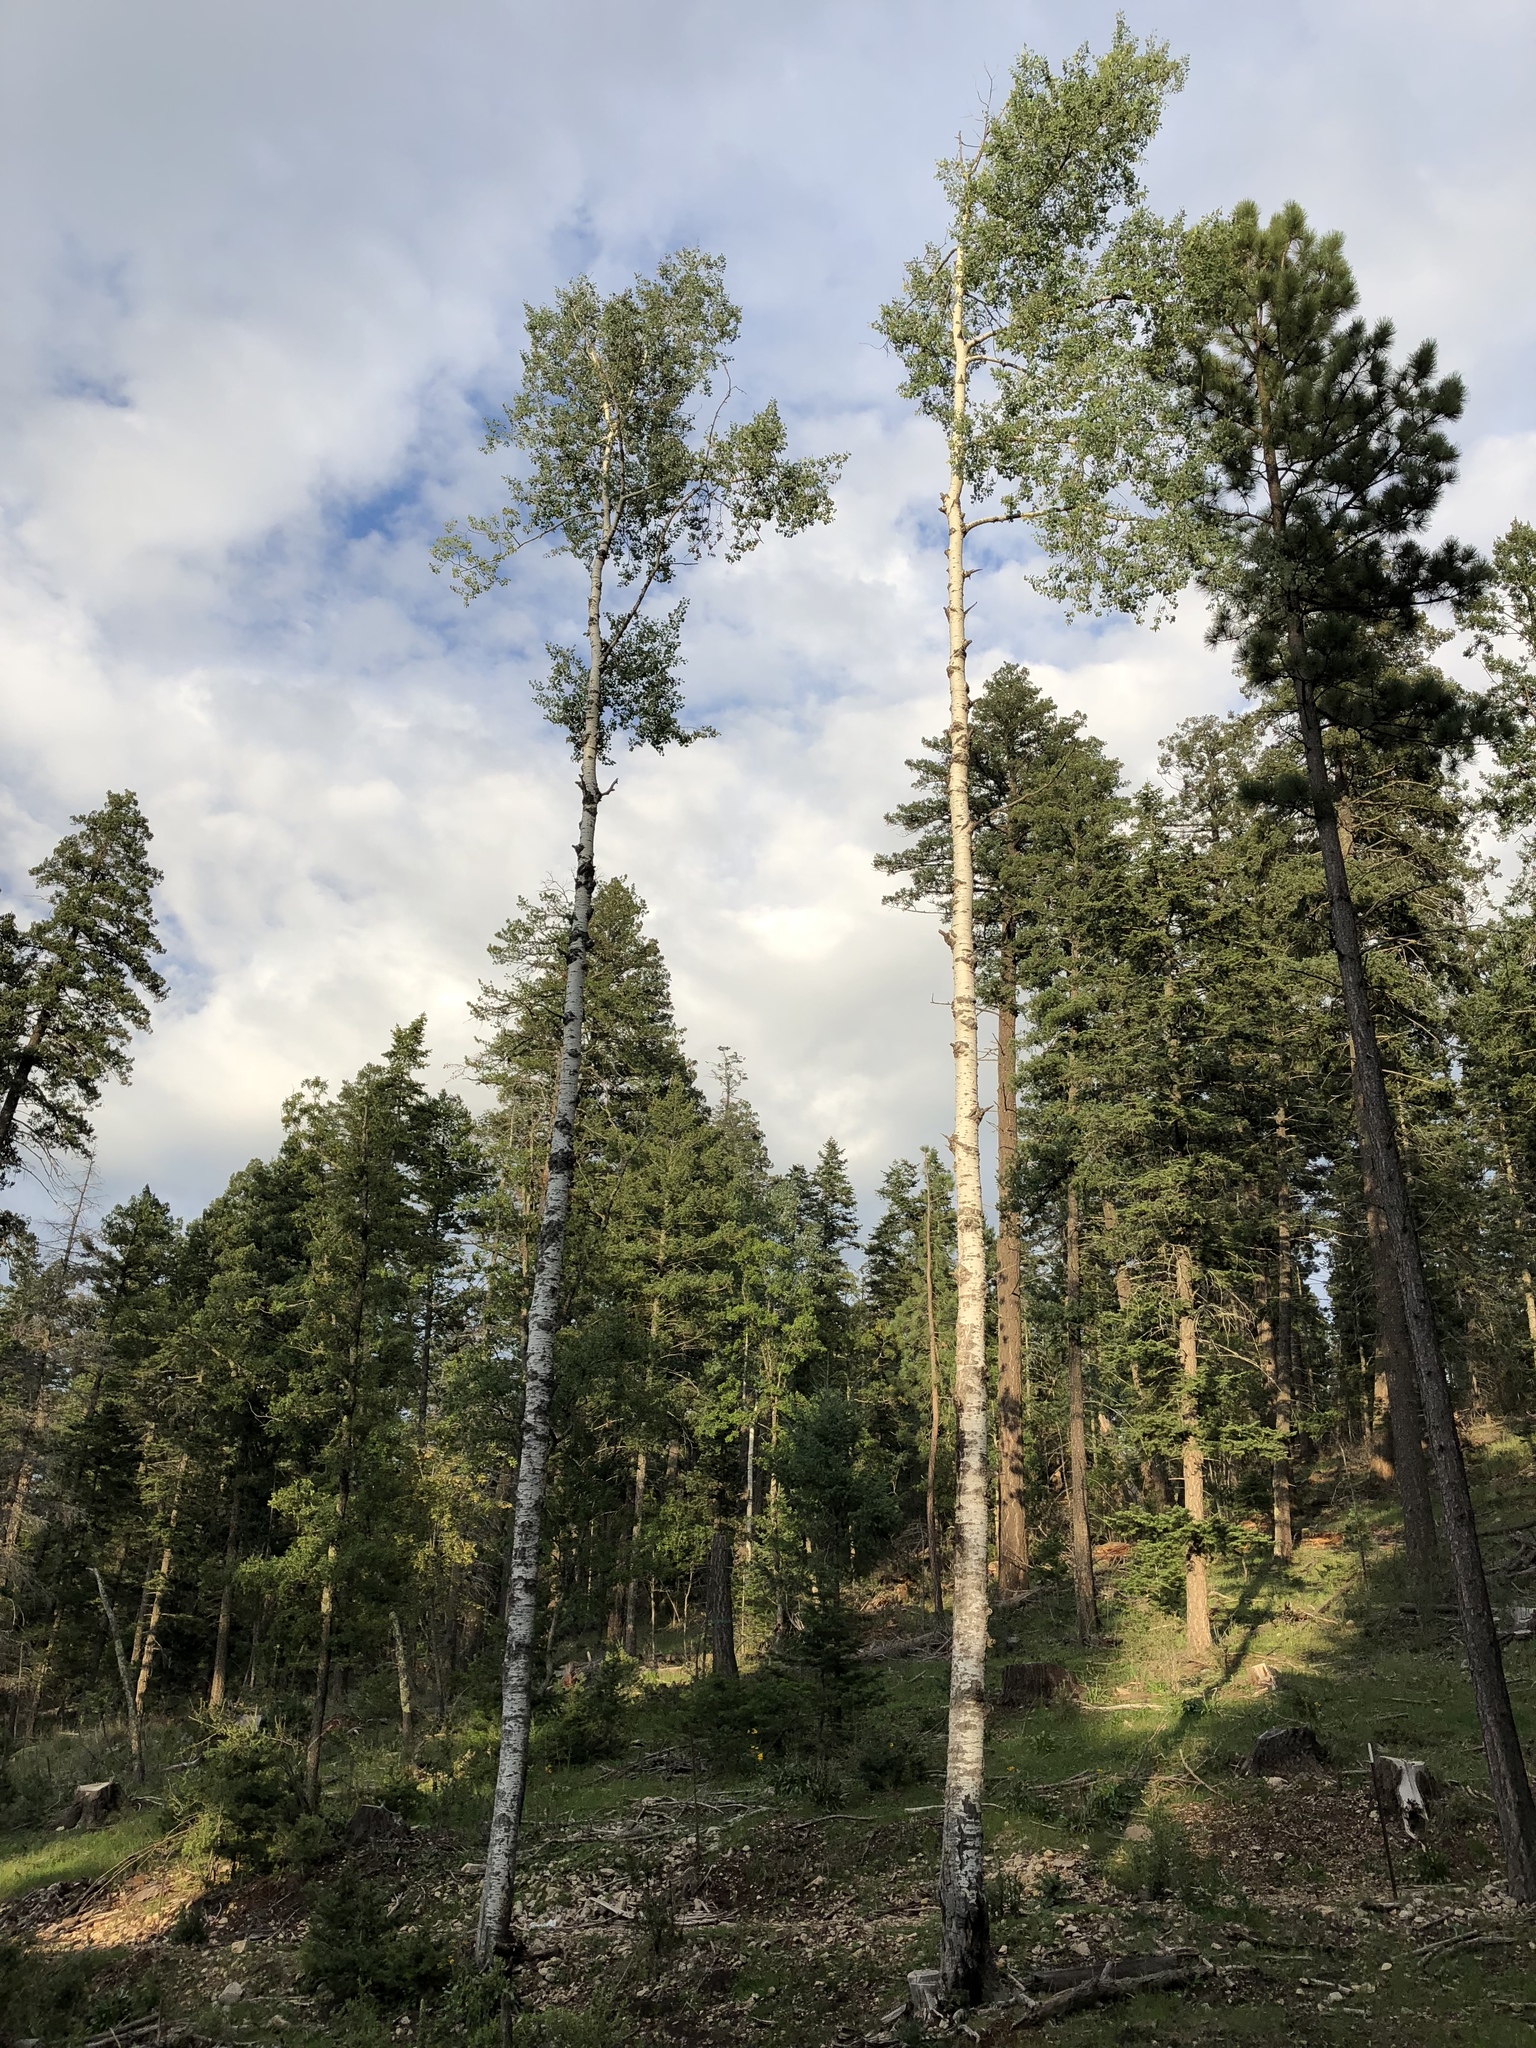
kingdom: Plantae
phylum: Tracheophyta
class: Magnoliopsida
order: Malpighiales
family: Salicaceae
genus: Populus
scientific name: Populus tremuloides
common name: Quaking aspen
